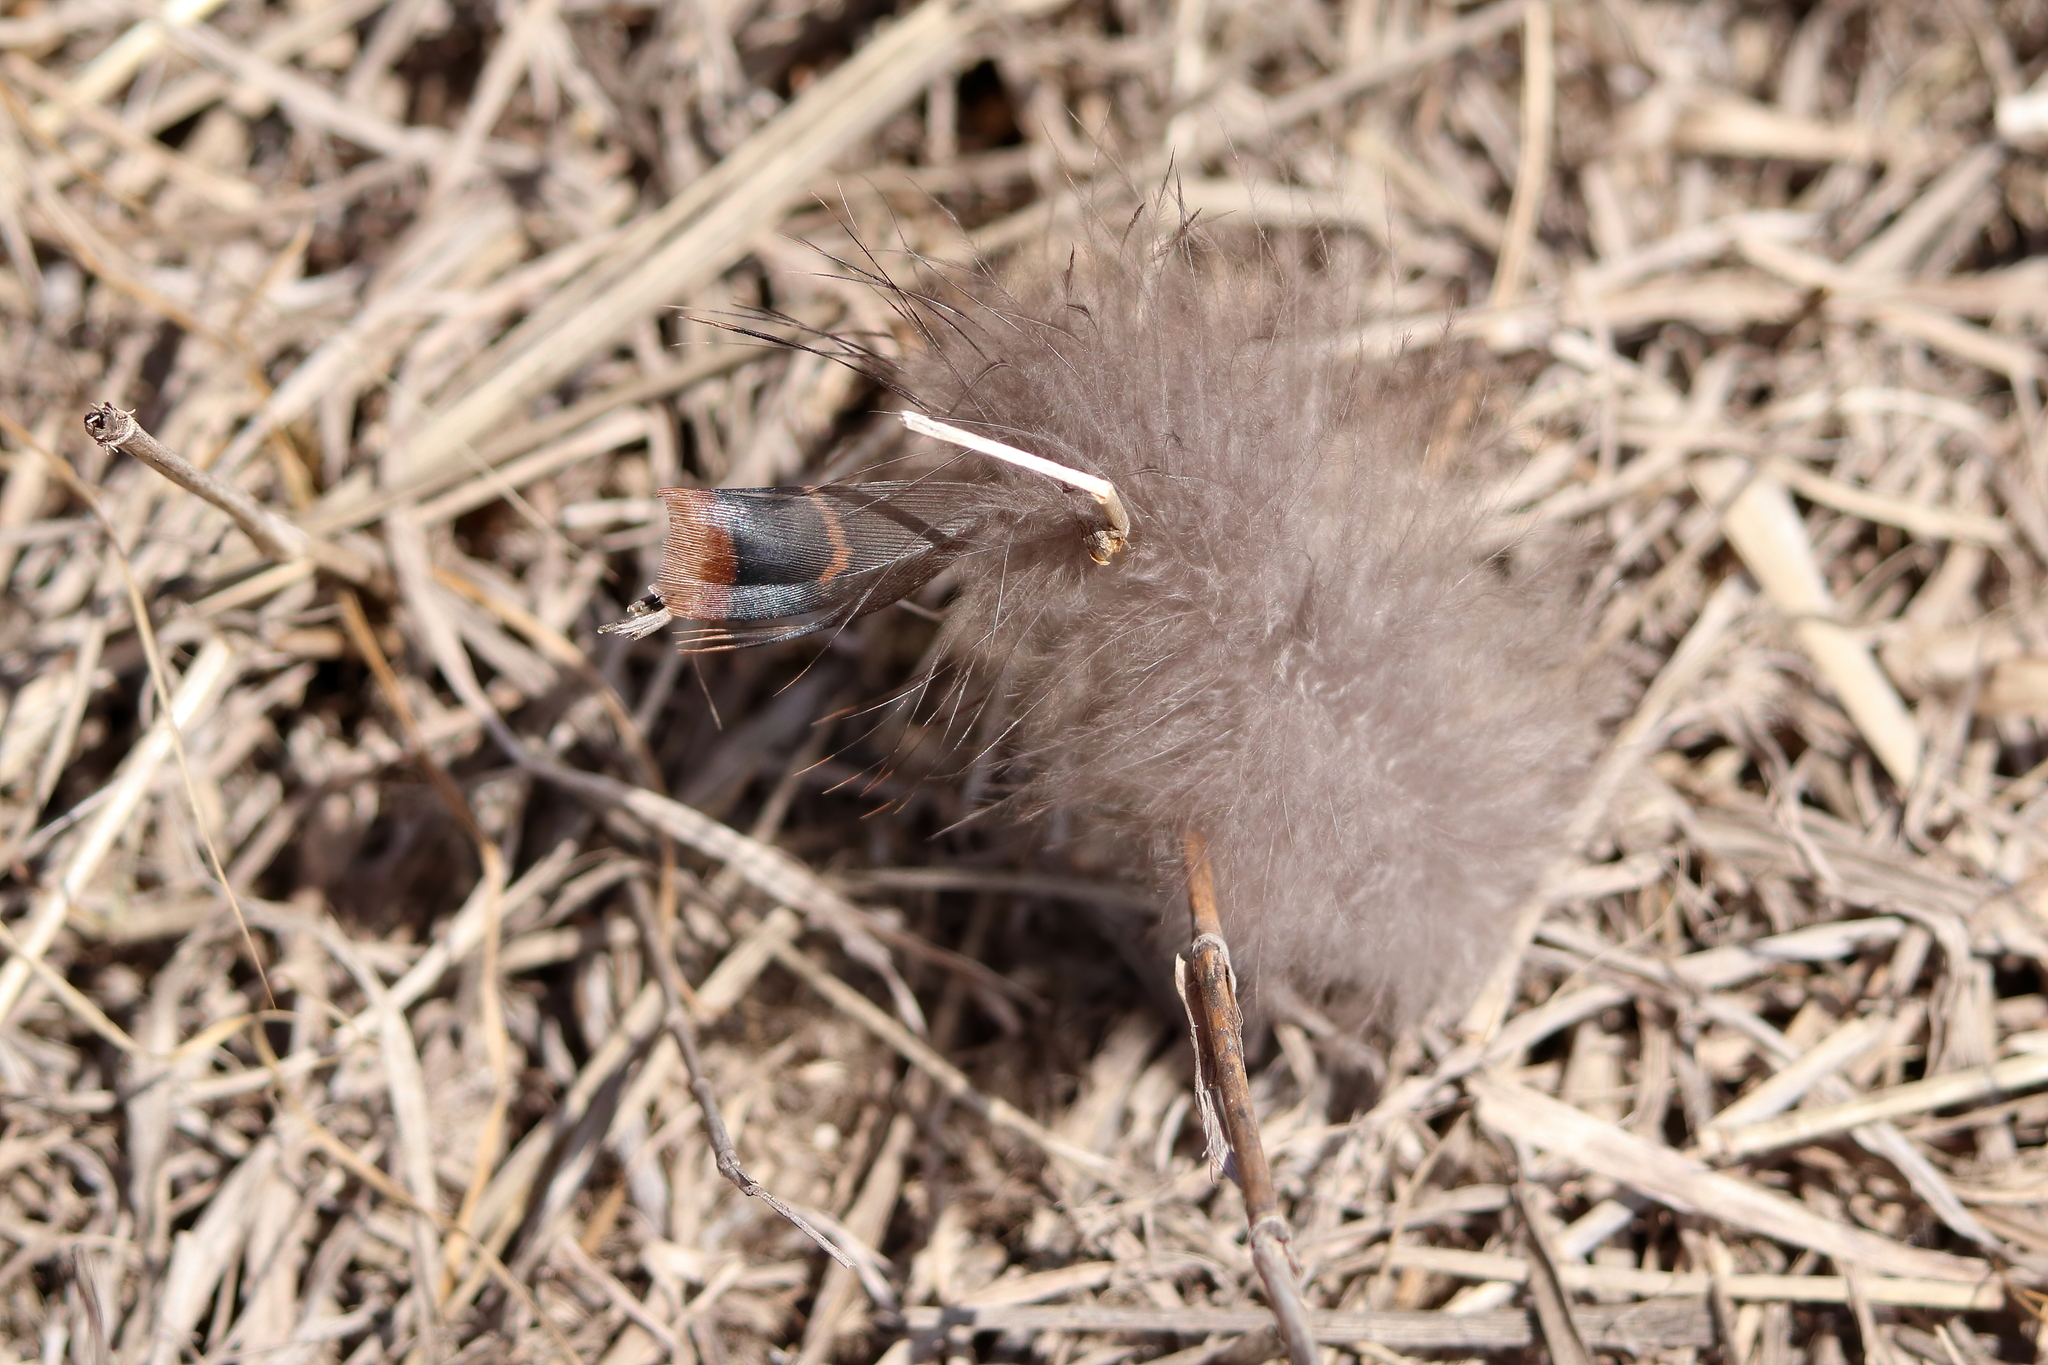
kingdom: Animalia
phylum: Chordata
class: Aves
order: Galliformes
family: Phasianidae
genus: Meleagris
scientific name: Meleagris gallopavo
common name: Wild turkey
